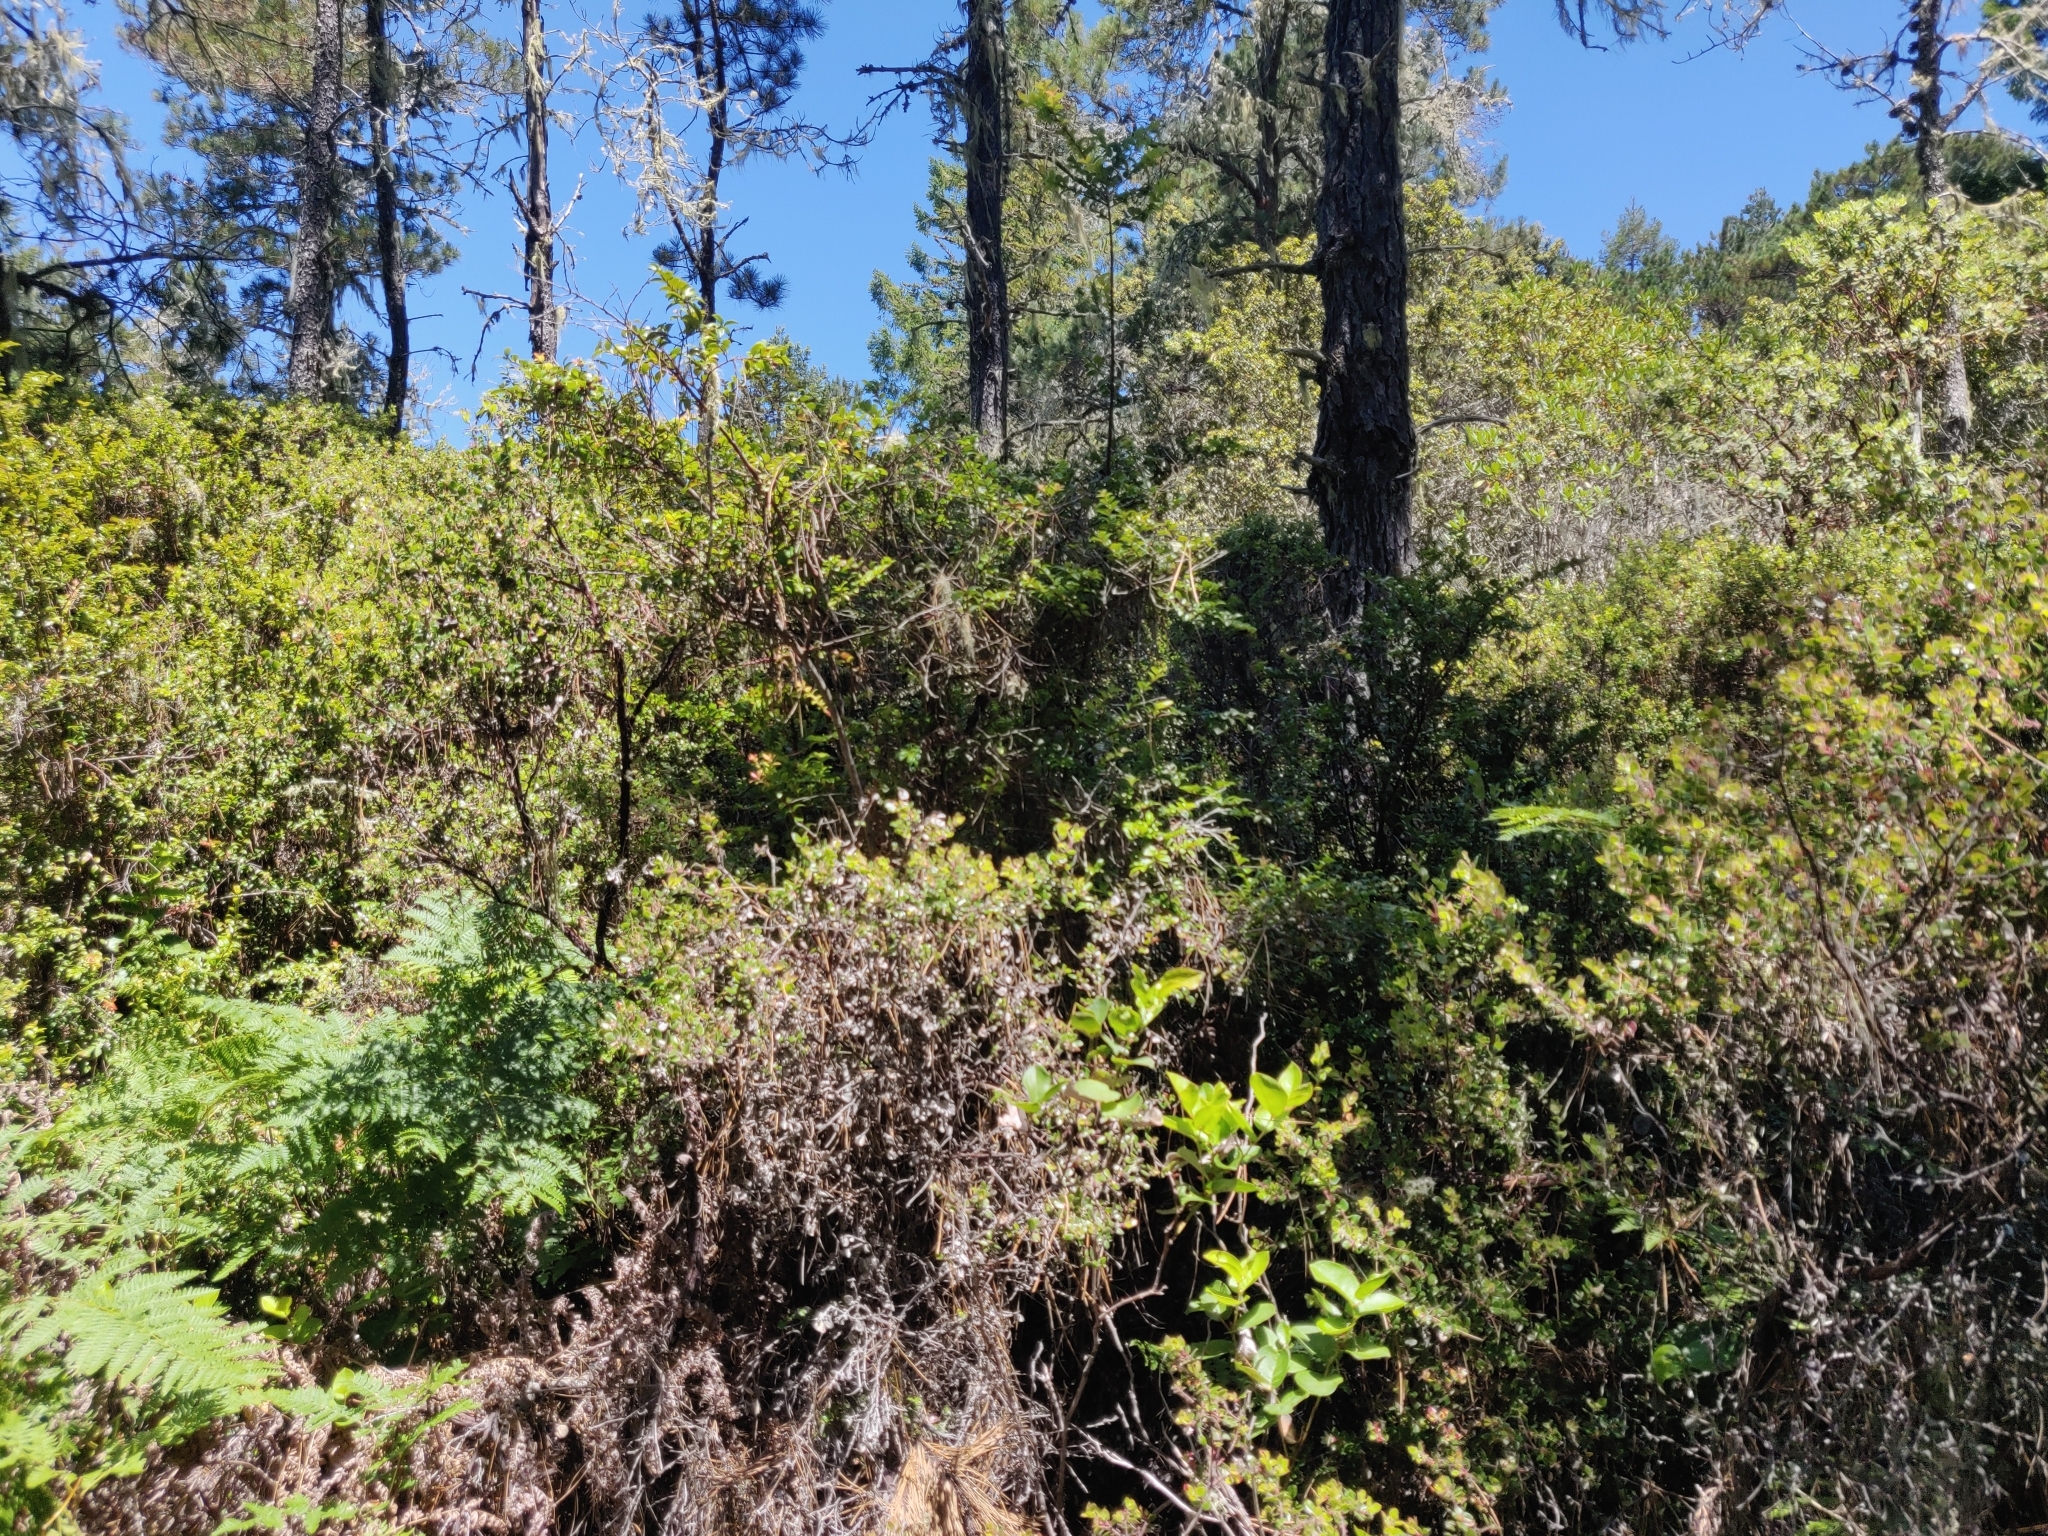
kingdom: Plantae
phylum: Tracheophyta
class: Magnoliopsida
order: Ericales
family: Ericaceae
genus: Arctostaphylos
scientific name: Arctostaphylos nummularia
